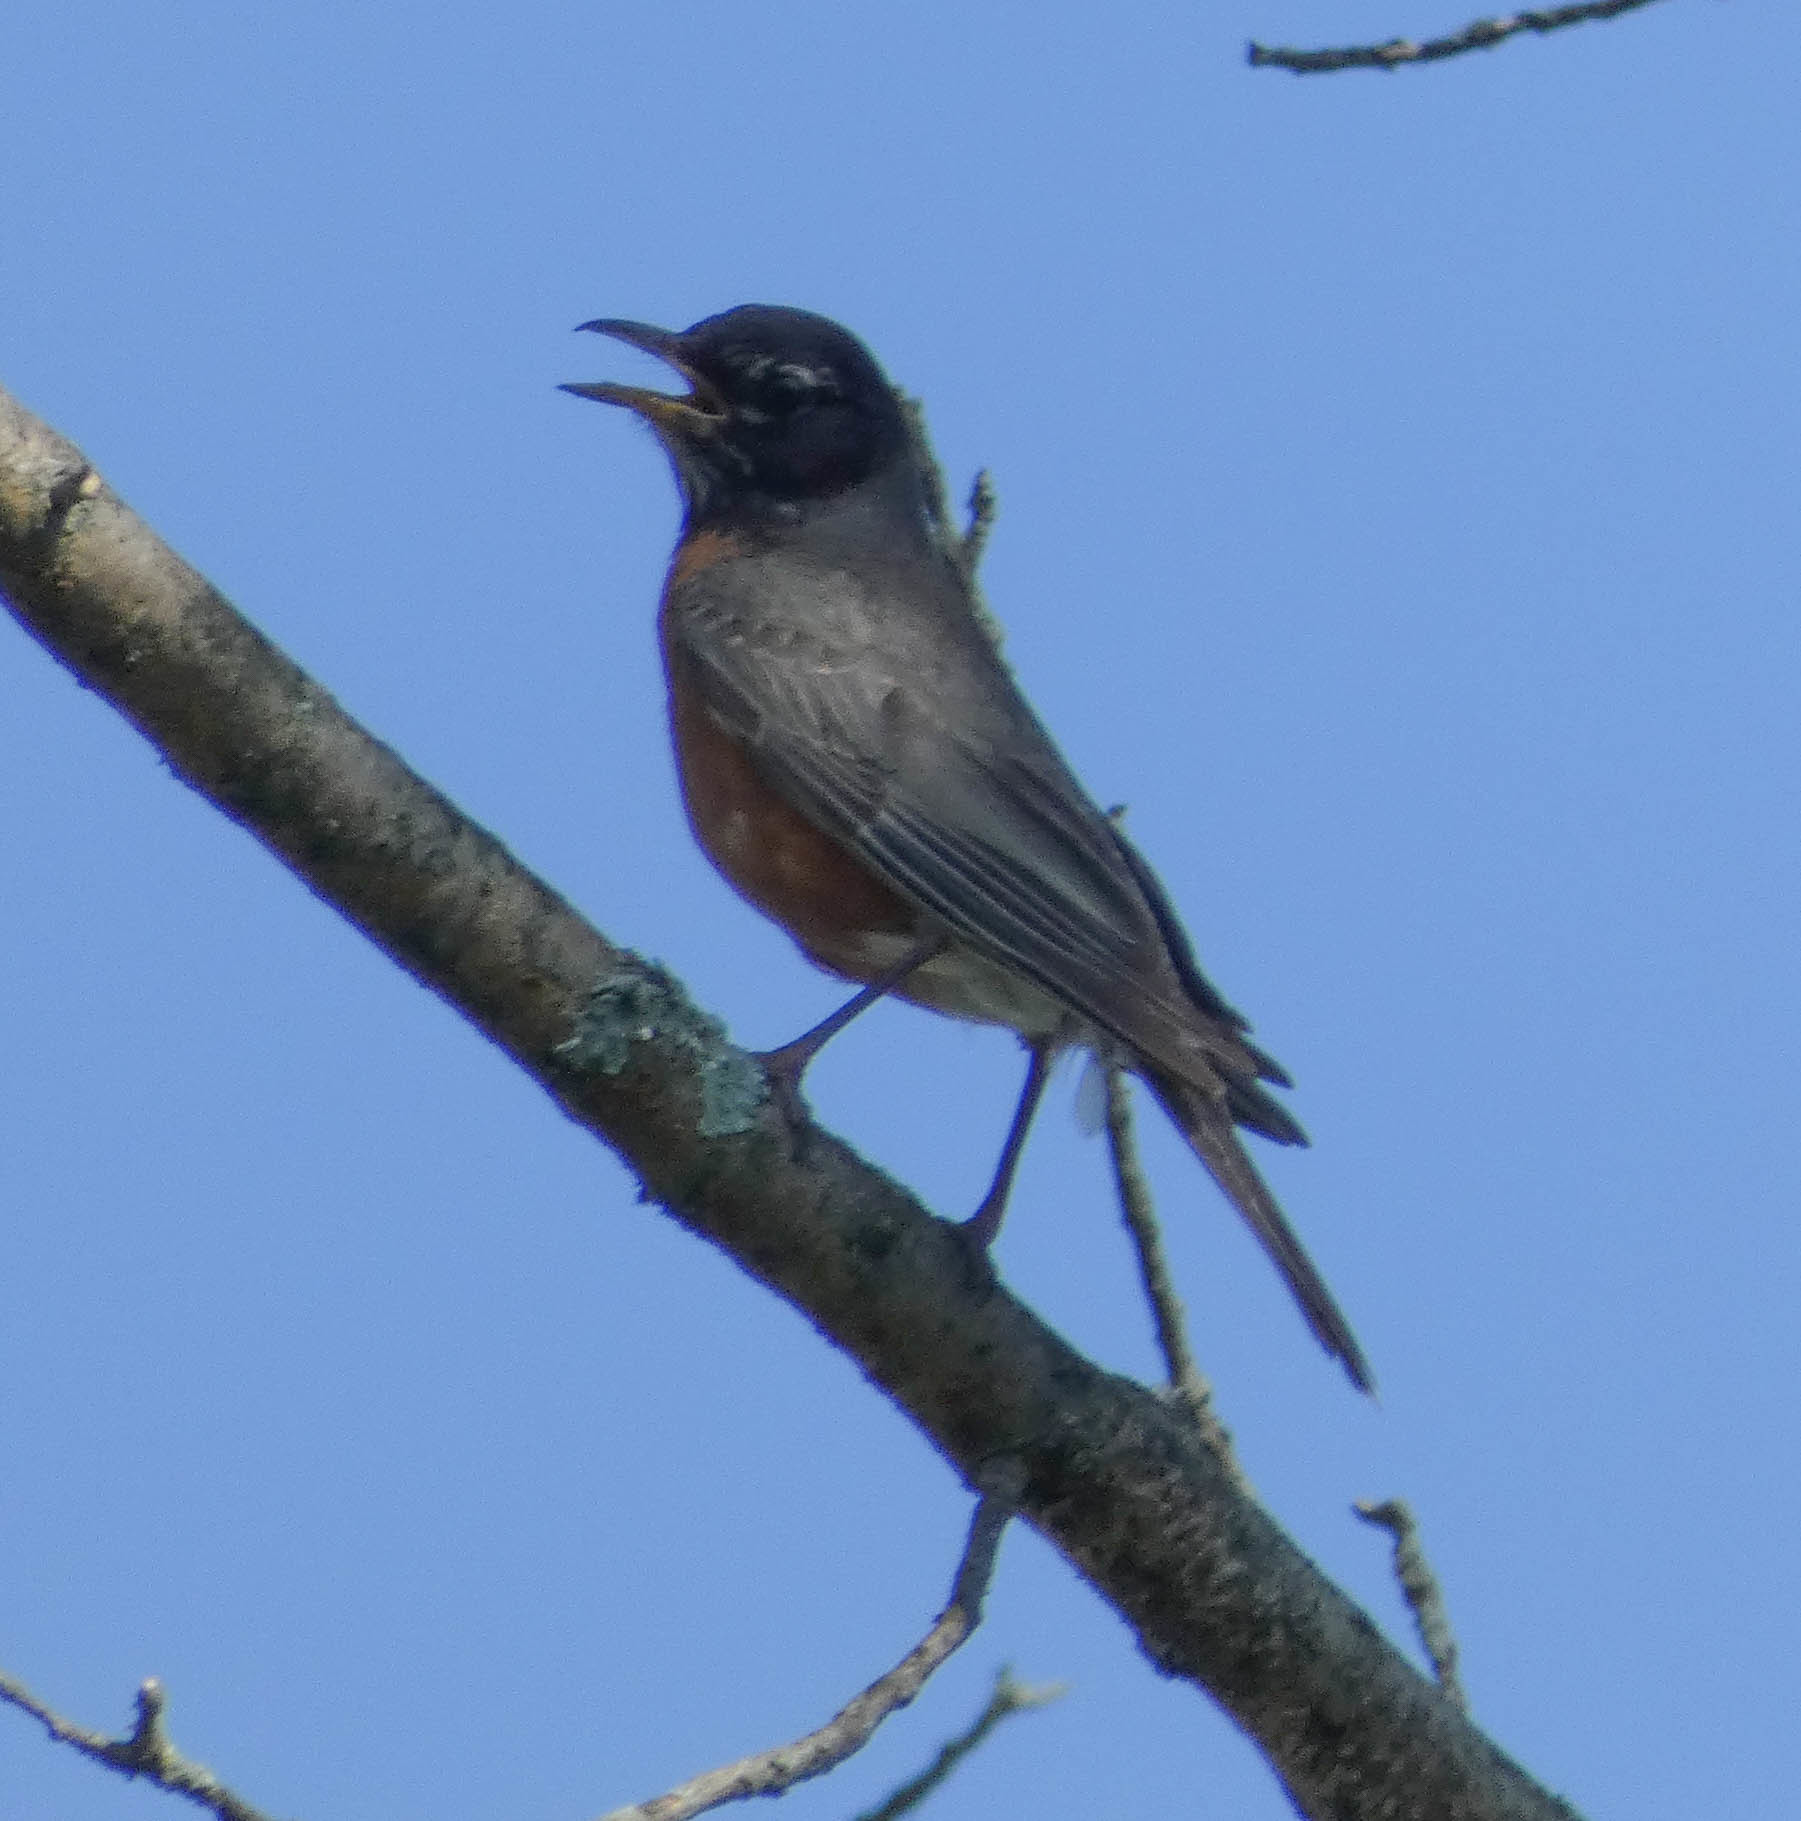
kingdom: Animalia
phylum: Chordata
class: Aves
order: Passeriformes
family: Turdidae
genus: Turdus
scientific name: Turdus migratorius
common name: American robin
